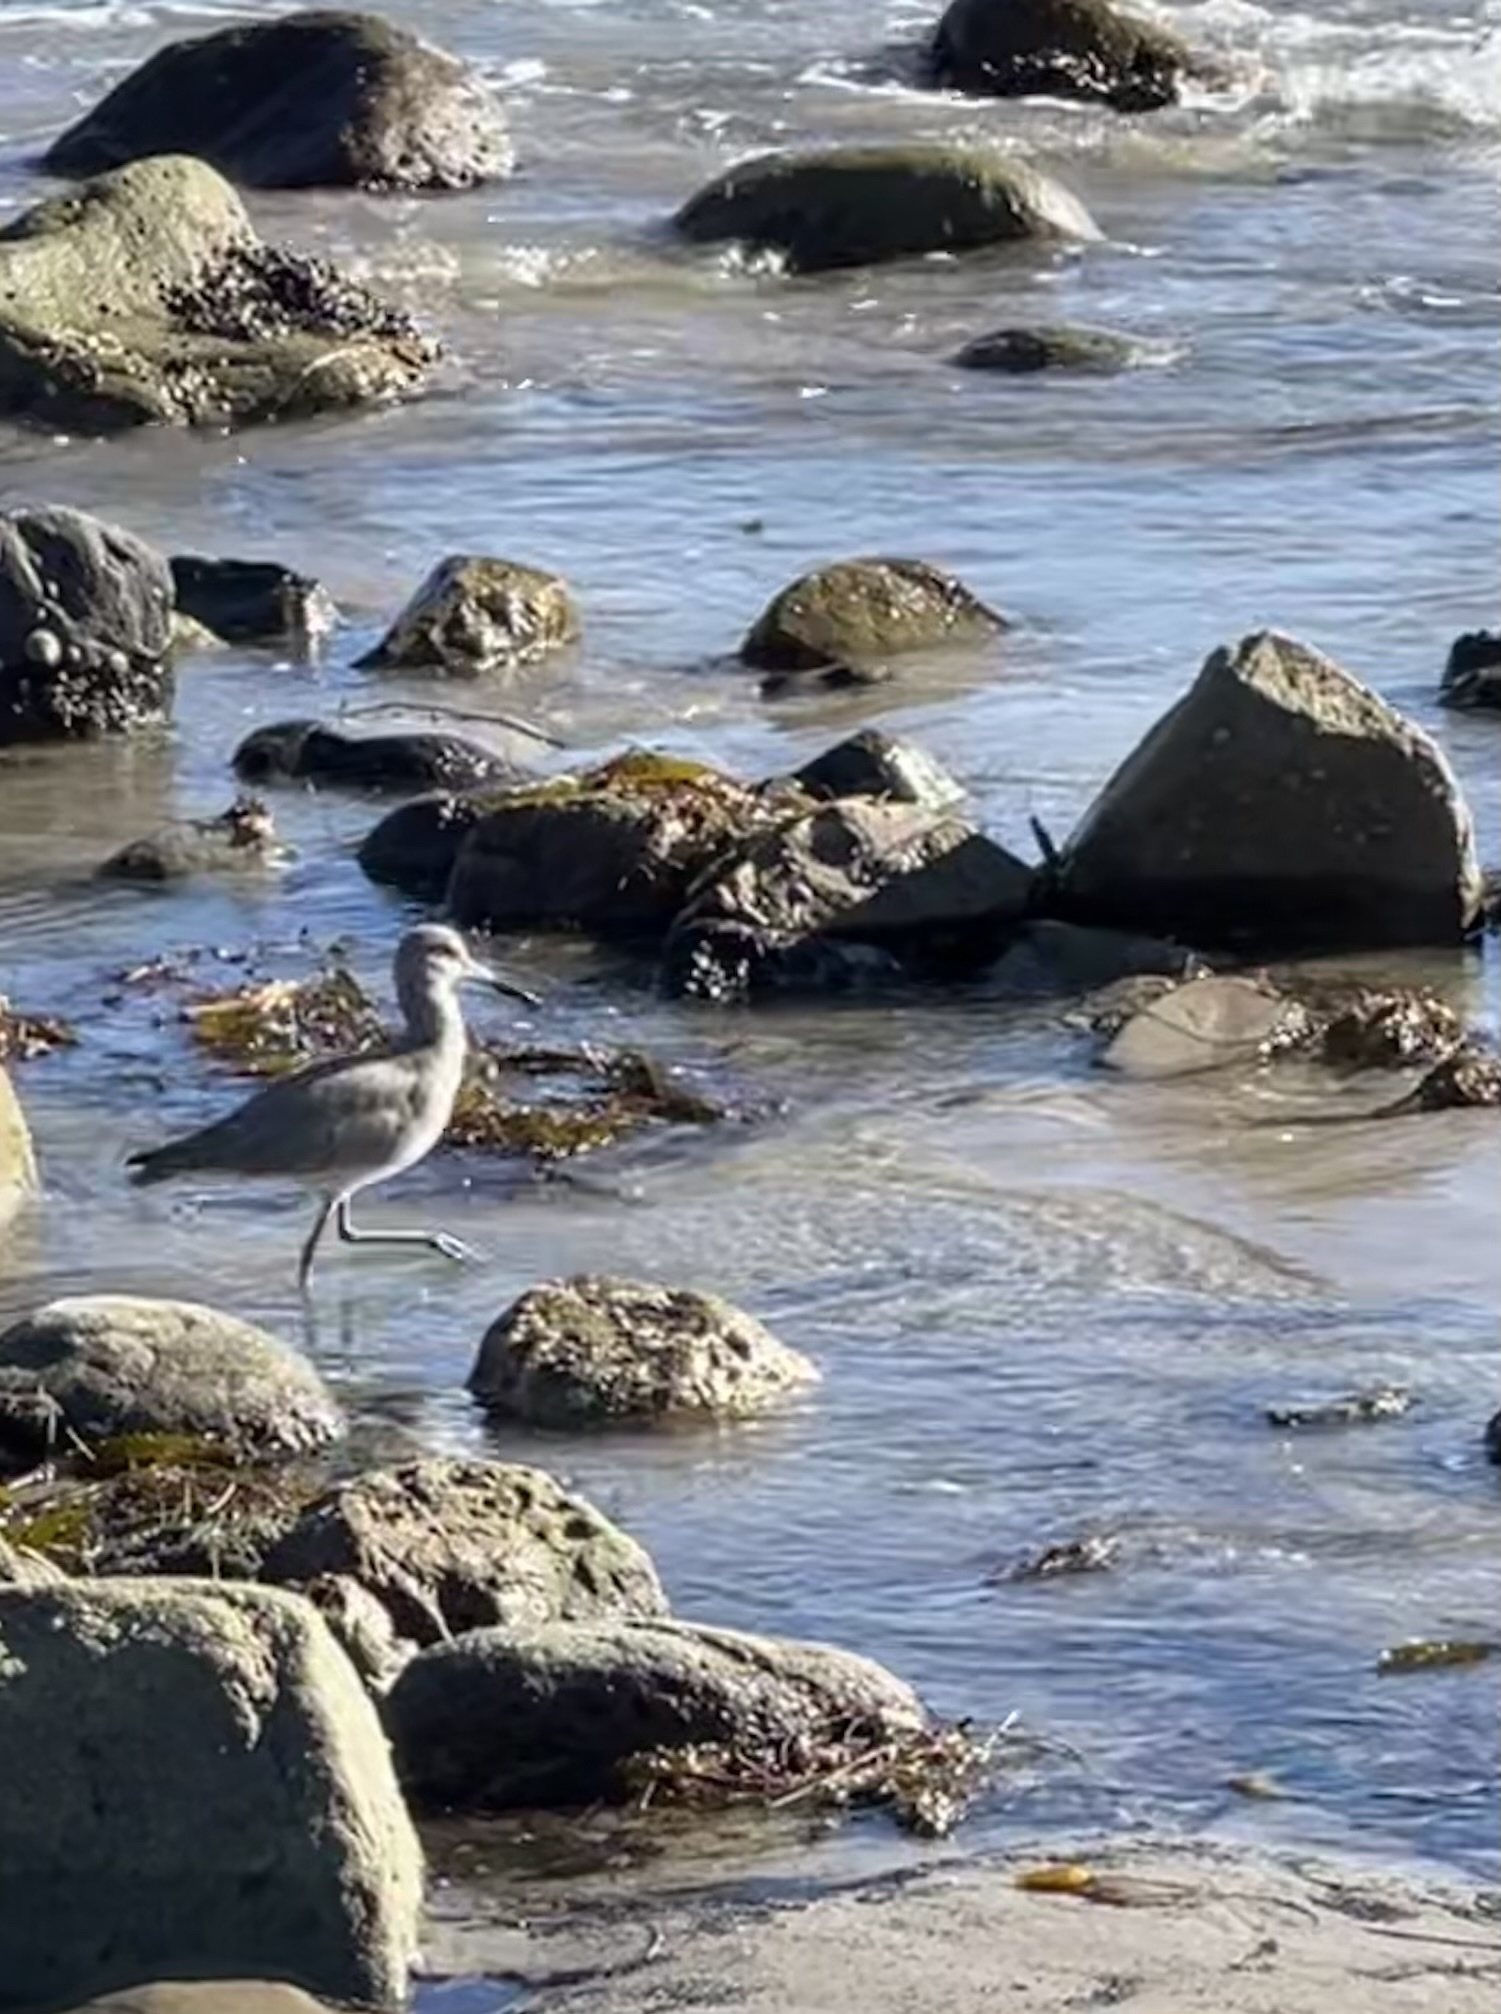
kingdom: Animalia
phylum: Chordata
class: Aves
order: Charadriiformes
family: Scolopacidae
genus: Tringa
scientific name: Tringa semipalmata
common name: Willet
